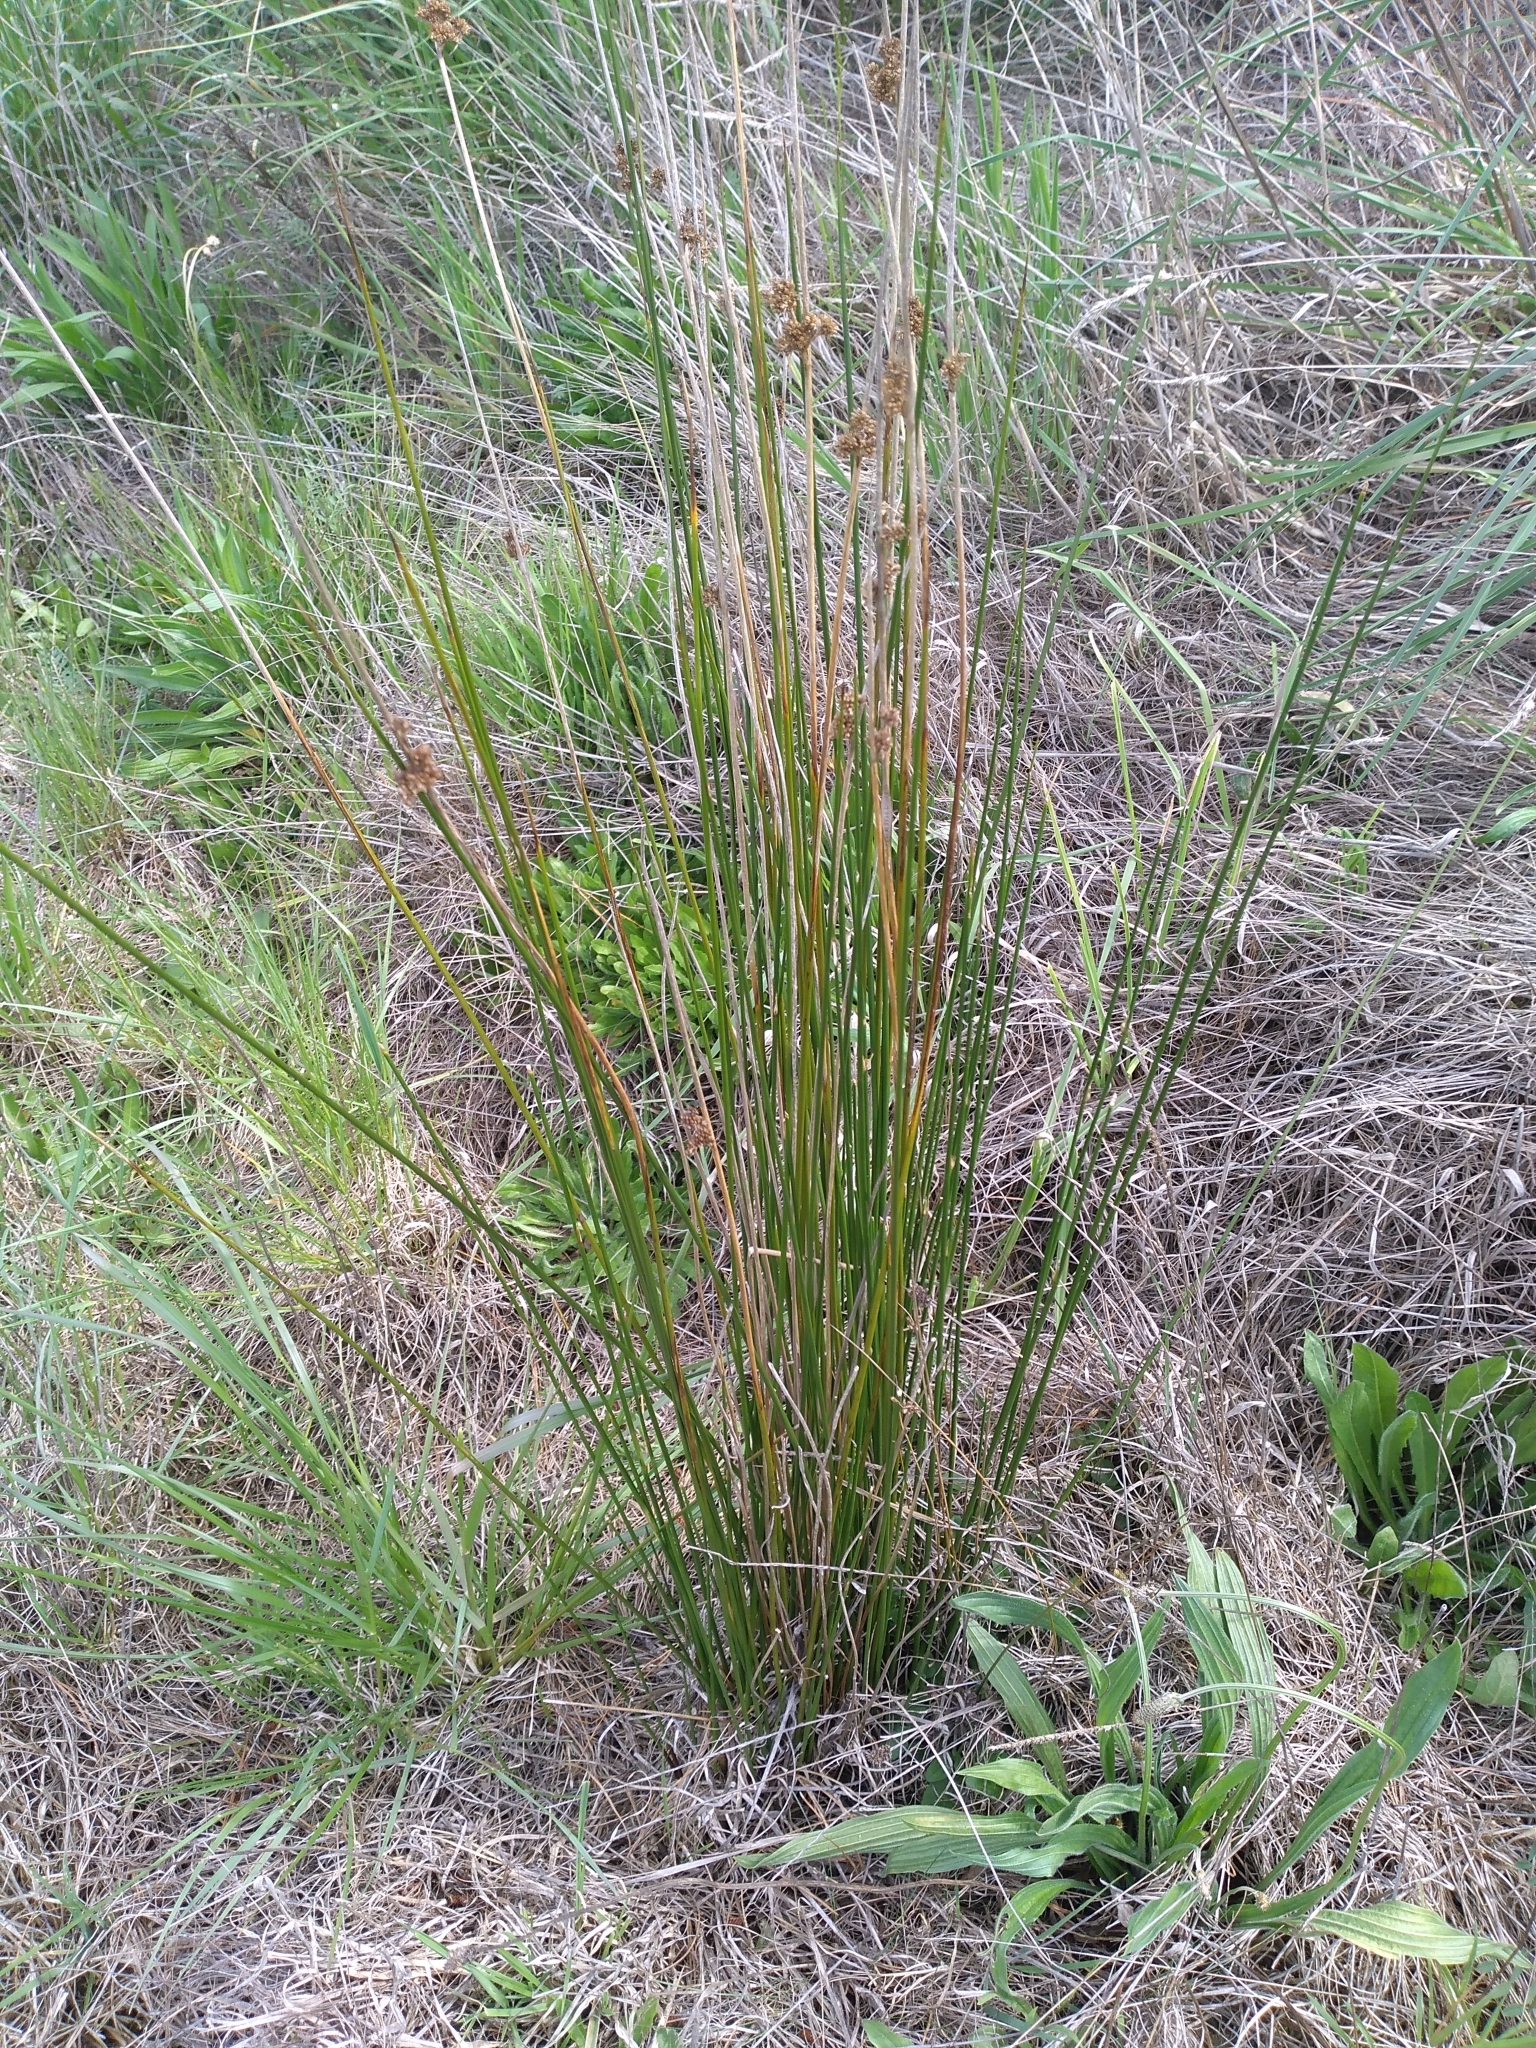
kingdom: Plantae
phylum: Tracheophyta
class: Liliopsida
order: Poales
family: Juncaceae
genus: Juncus
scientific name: Juncus edgariae
